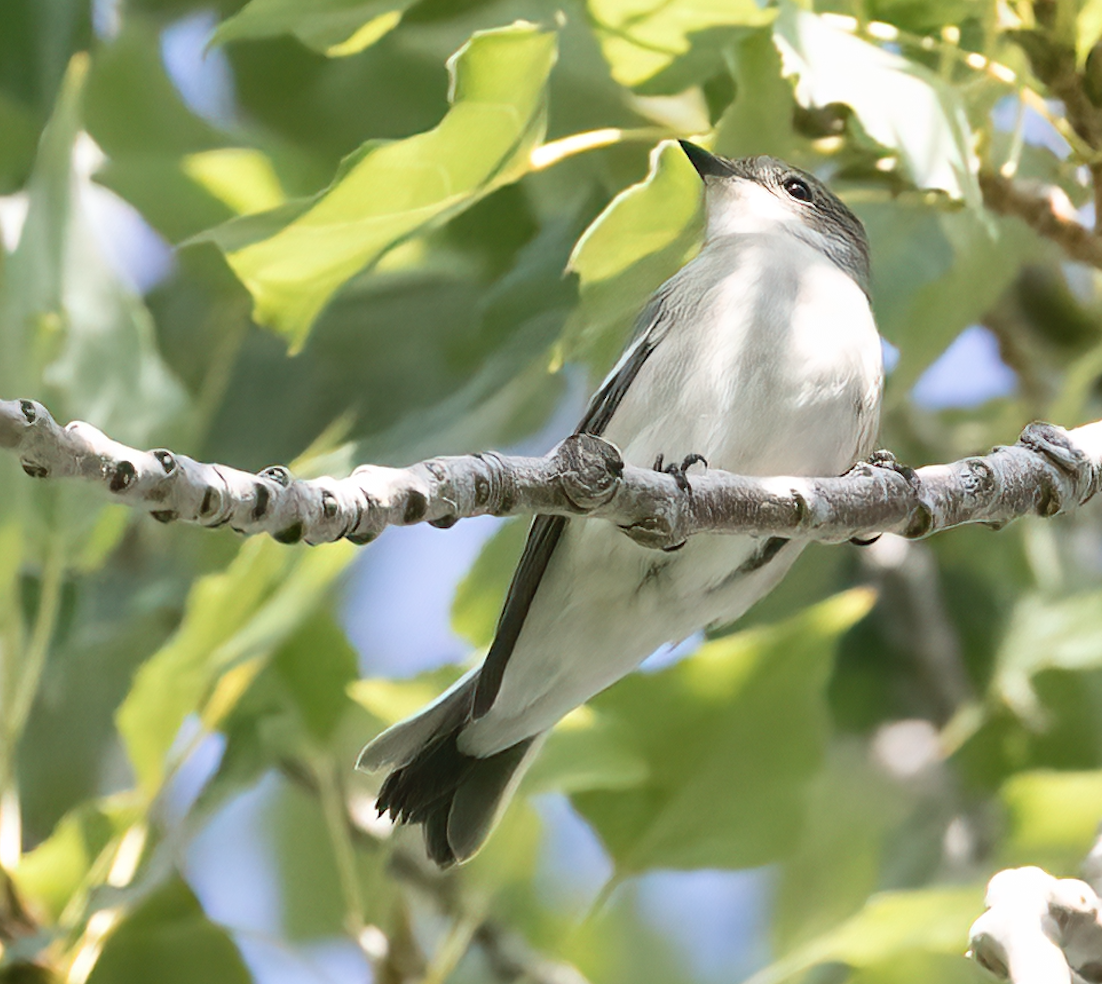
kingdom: Animalia
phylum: Chordata
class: Aves
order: Passeriformes
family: Muscicapidae
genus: Ficedula
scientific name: Ficedula hypoleuca
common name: European pied flycatcher
